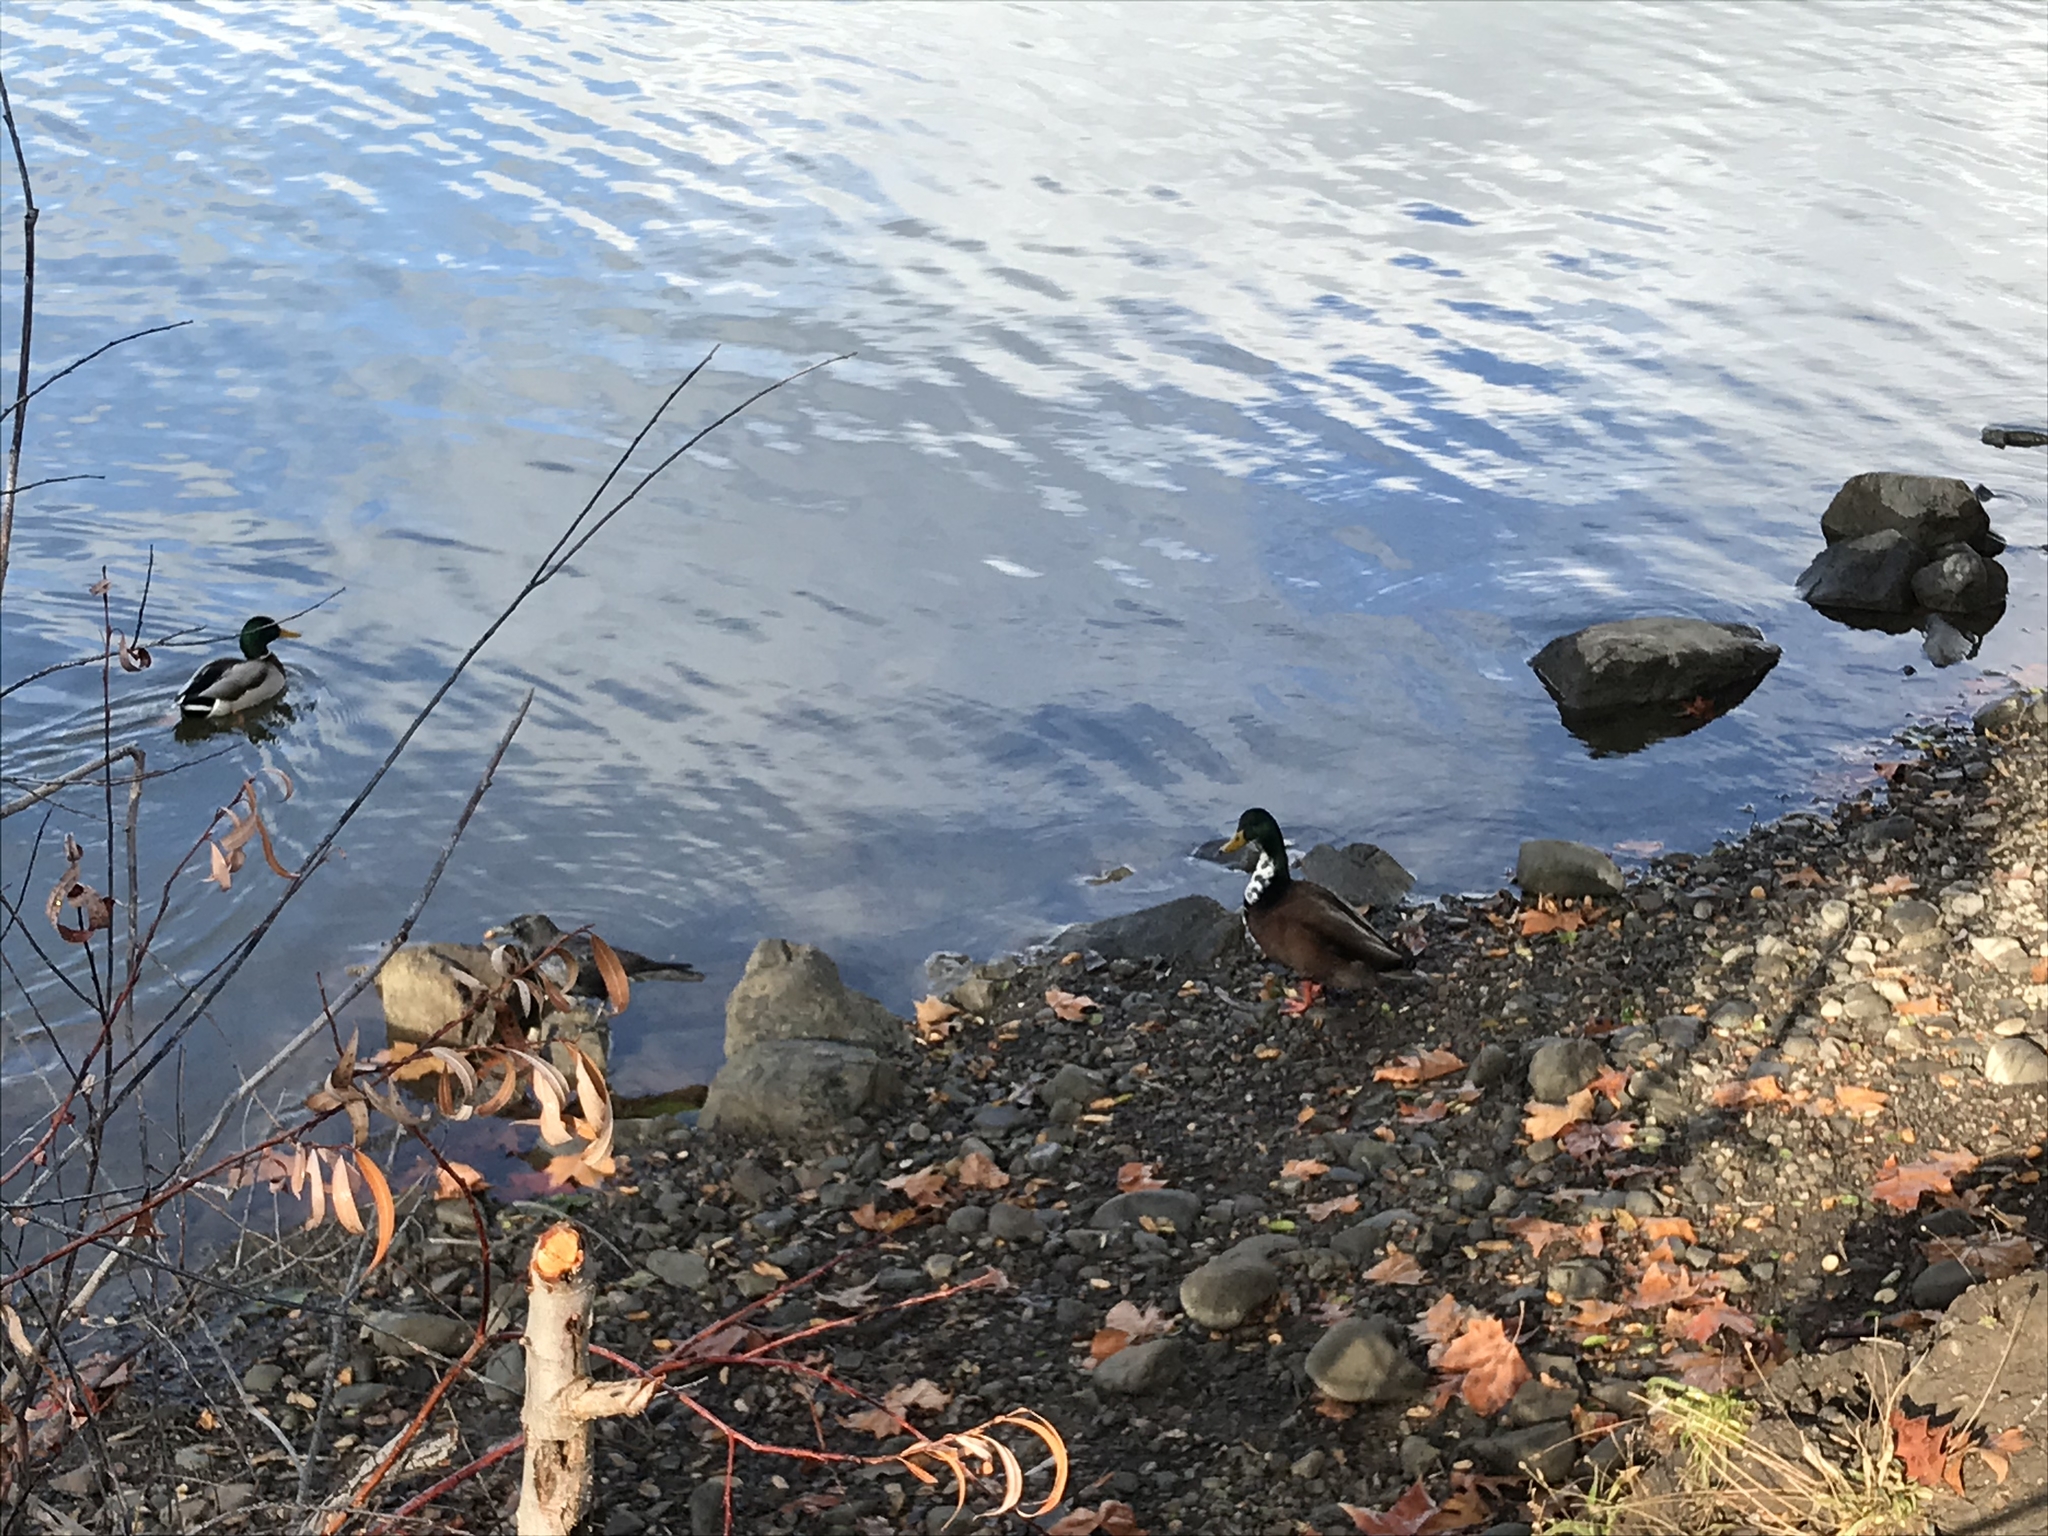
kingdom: Animalia
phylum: Chordata
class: Aves
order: Anseriformes
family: Anatidae
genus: Anas
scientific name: Anas platyrhynchos
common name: Mallard
